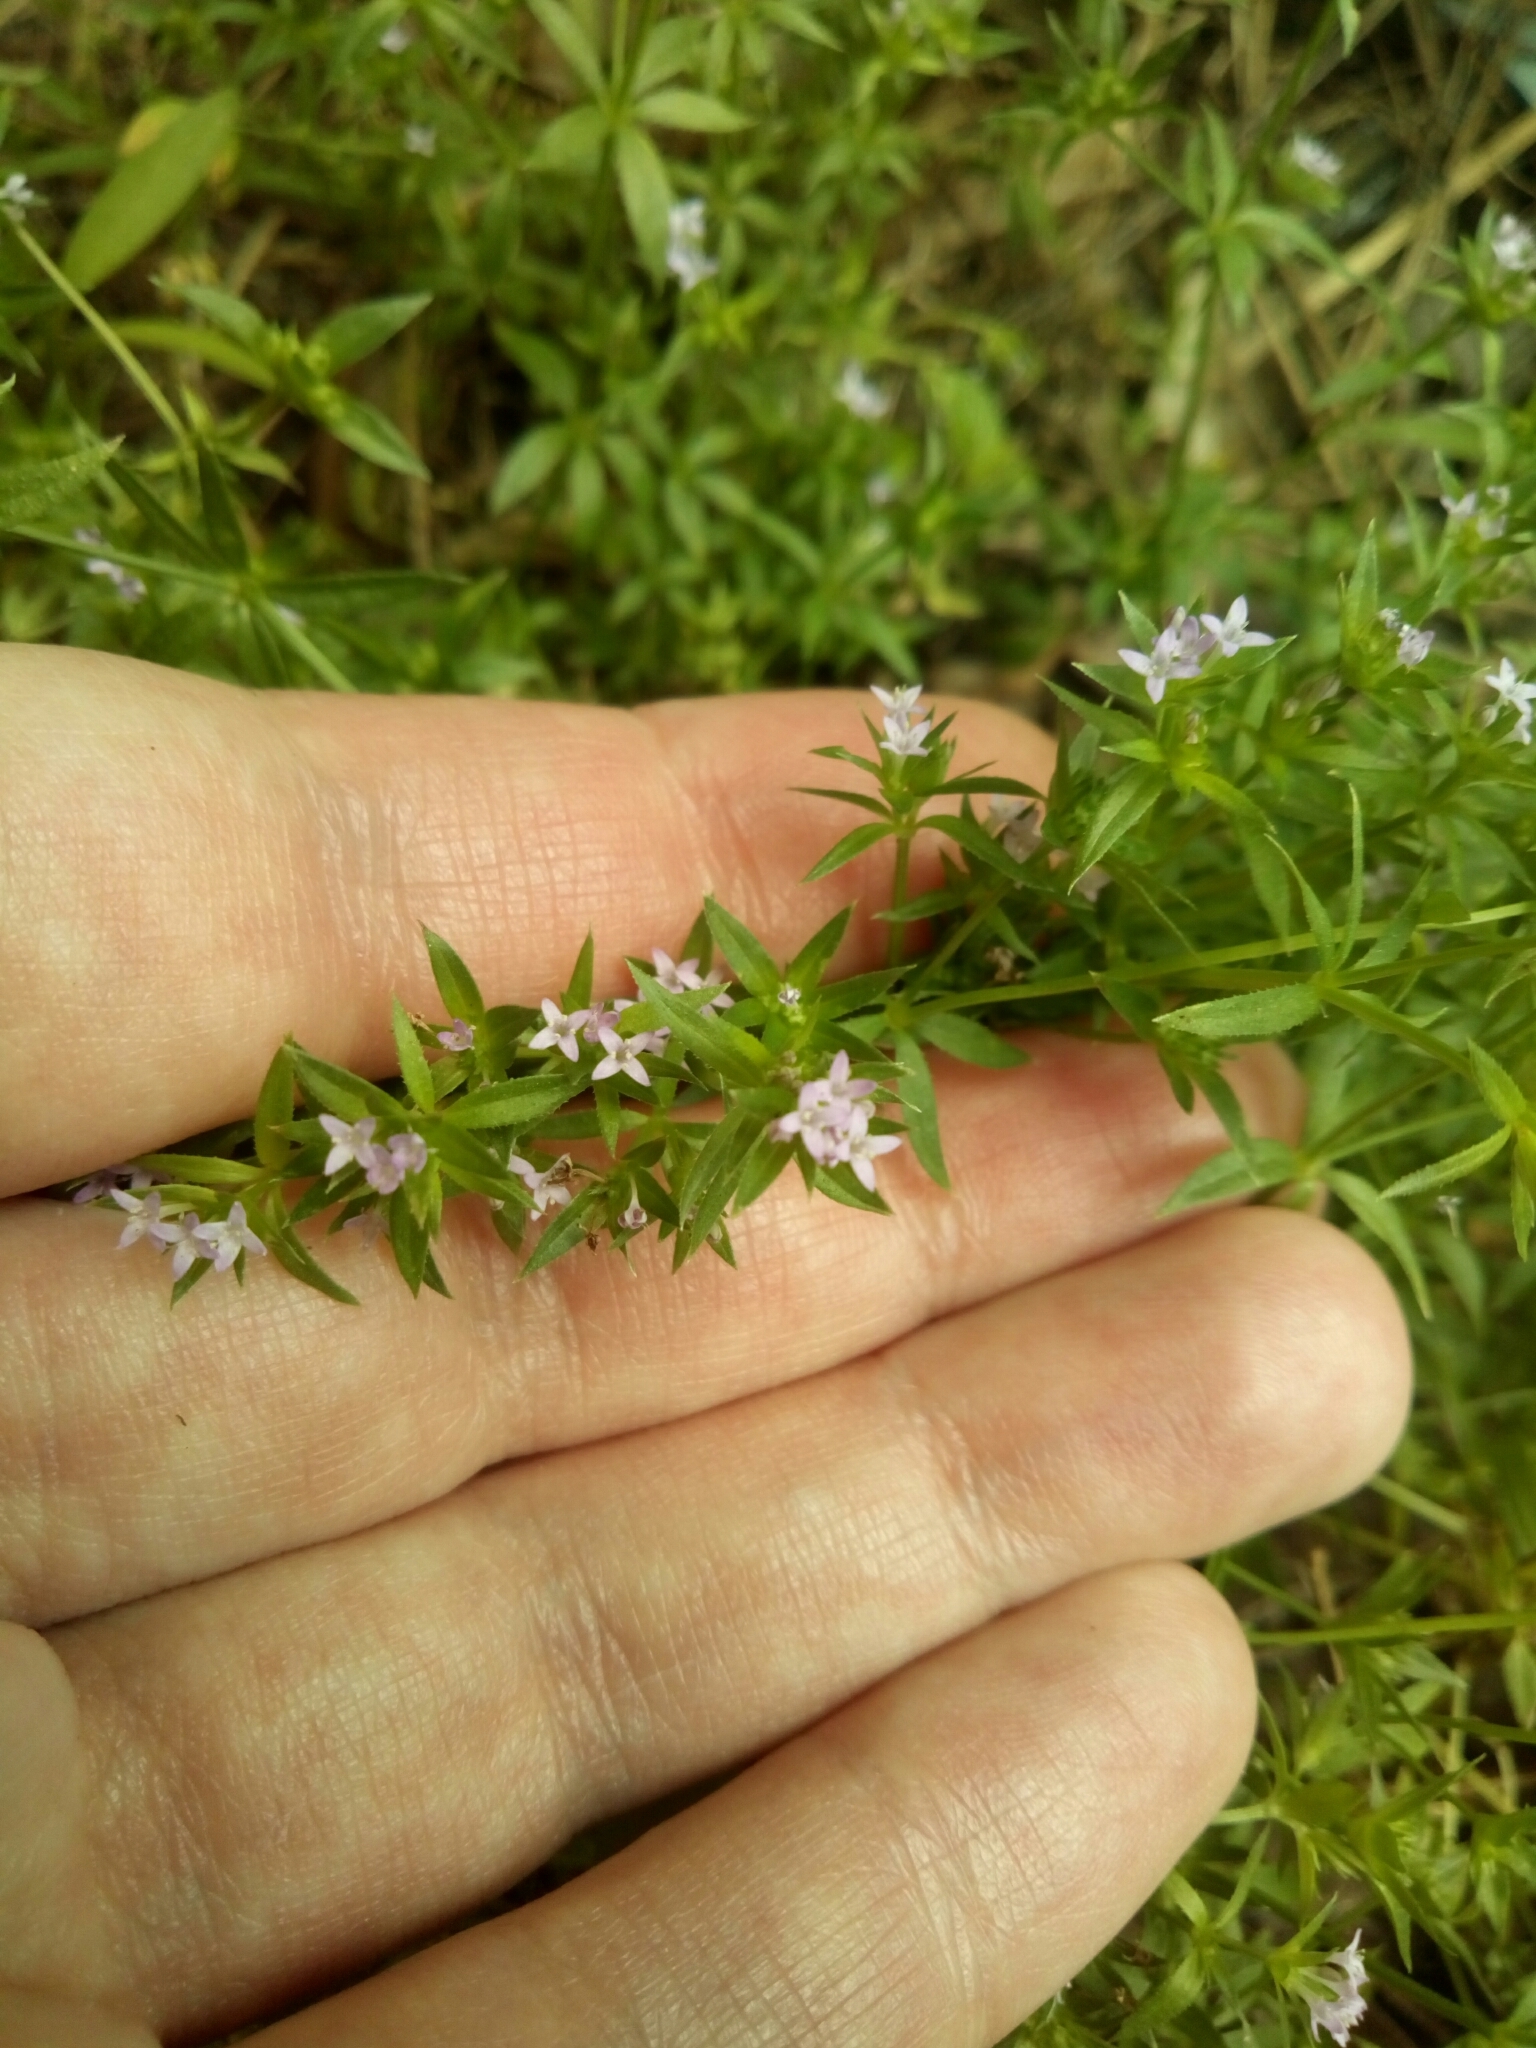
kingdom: Plantae
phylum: Tracheophyta
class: Magnoliopsida
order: Gentianales
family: Rubiaceae
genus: Sherardia
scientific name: Sherardia arvensis
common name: Field madder
